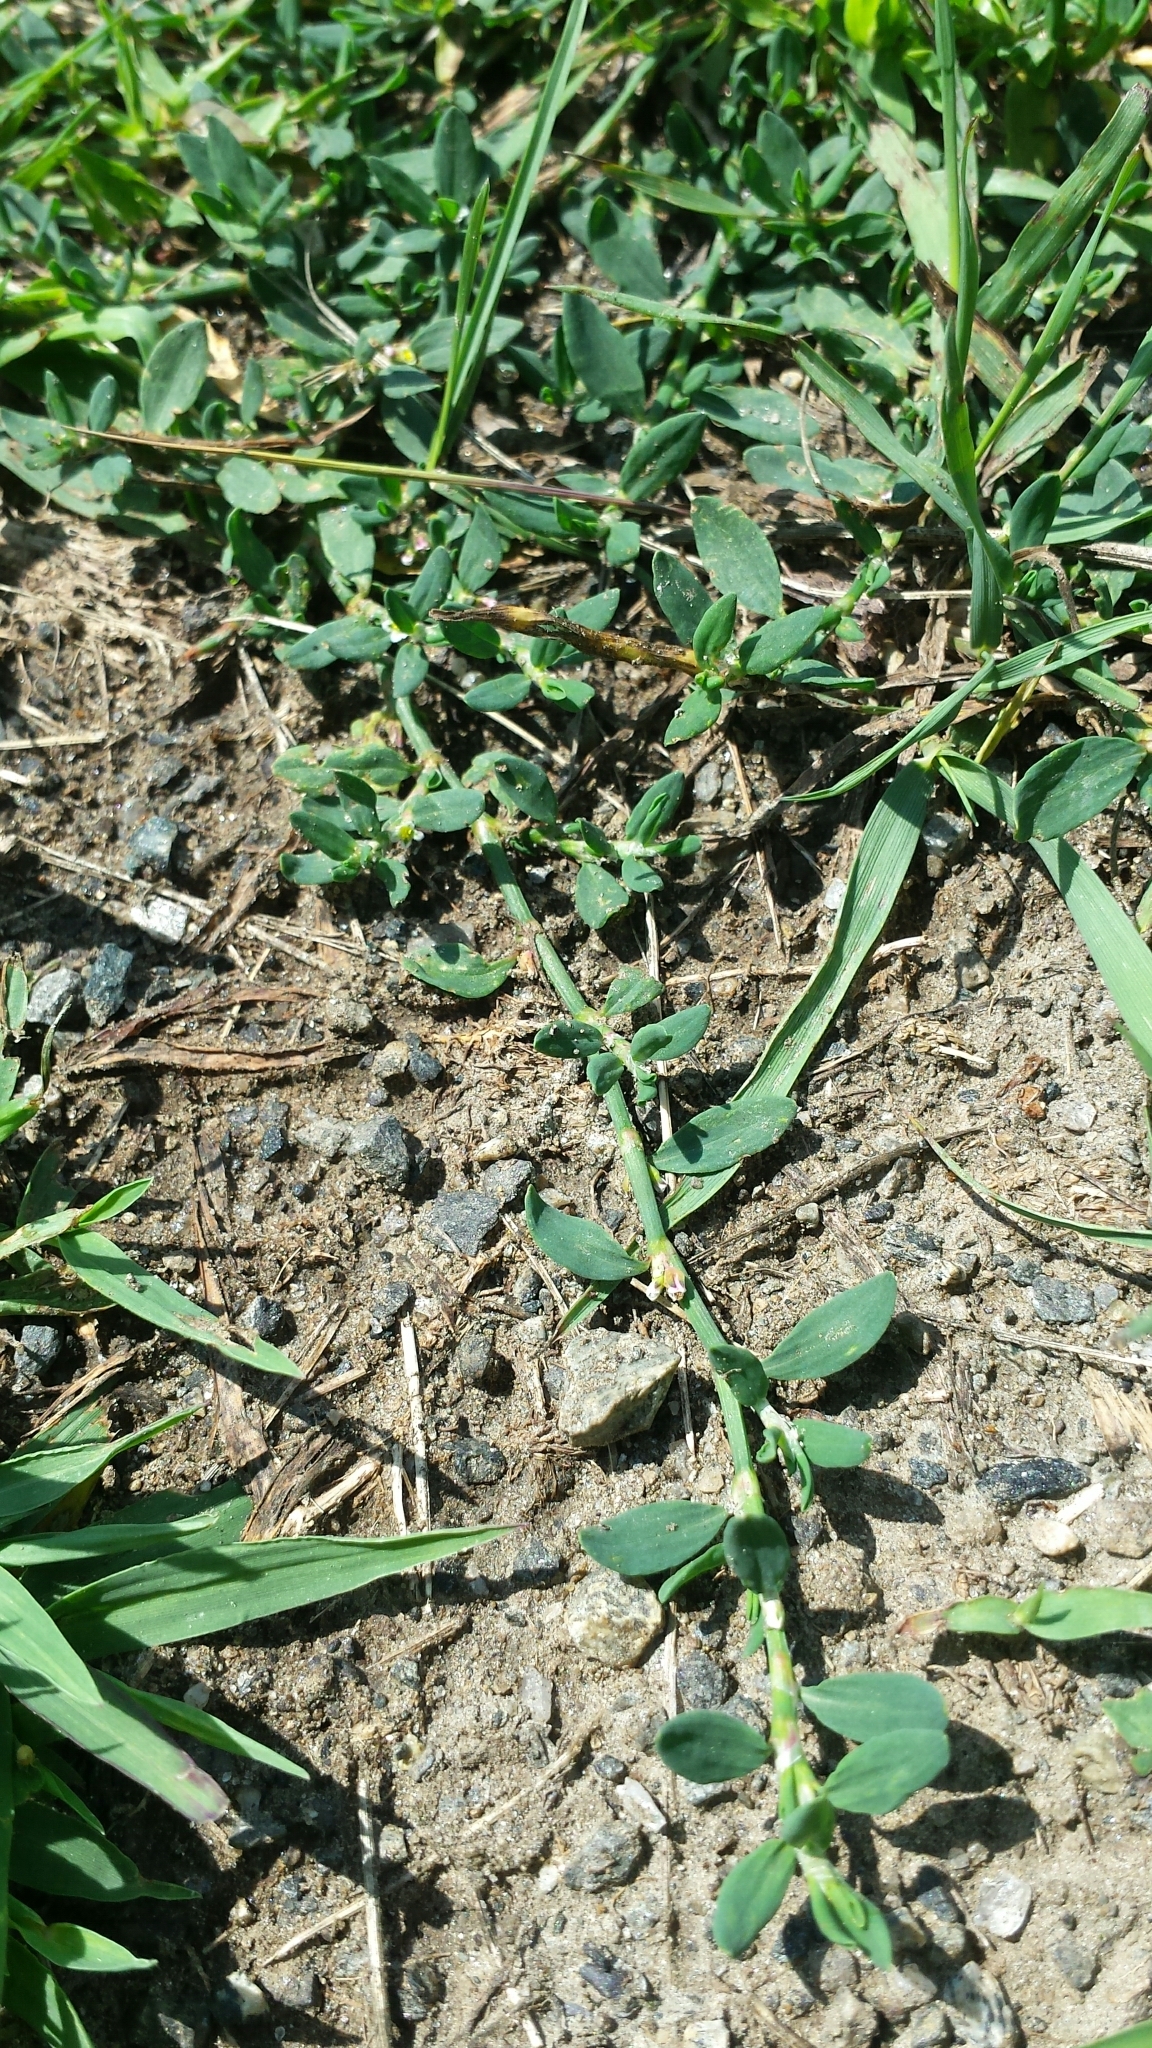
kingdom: Plantae
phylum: Tracheophyta
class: Magnoliopsida
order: Caryophyllales
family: Polygonaceae
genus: Polygonum
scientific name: Polygonum aviculare
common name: Prostrate knotweed
